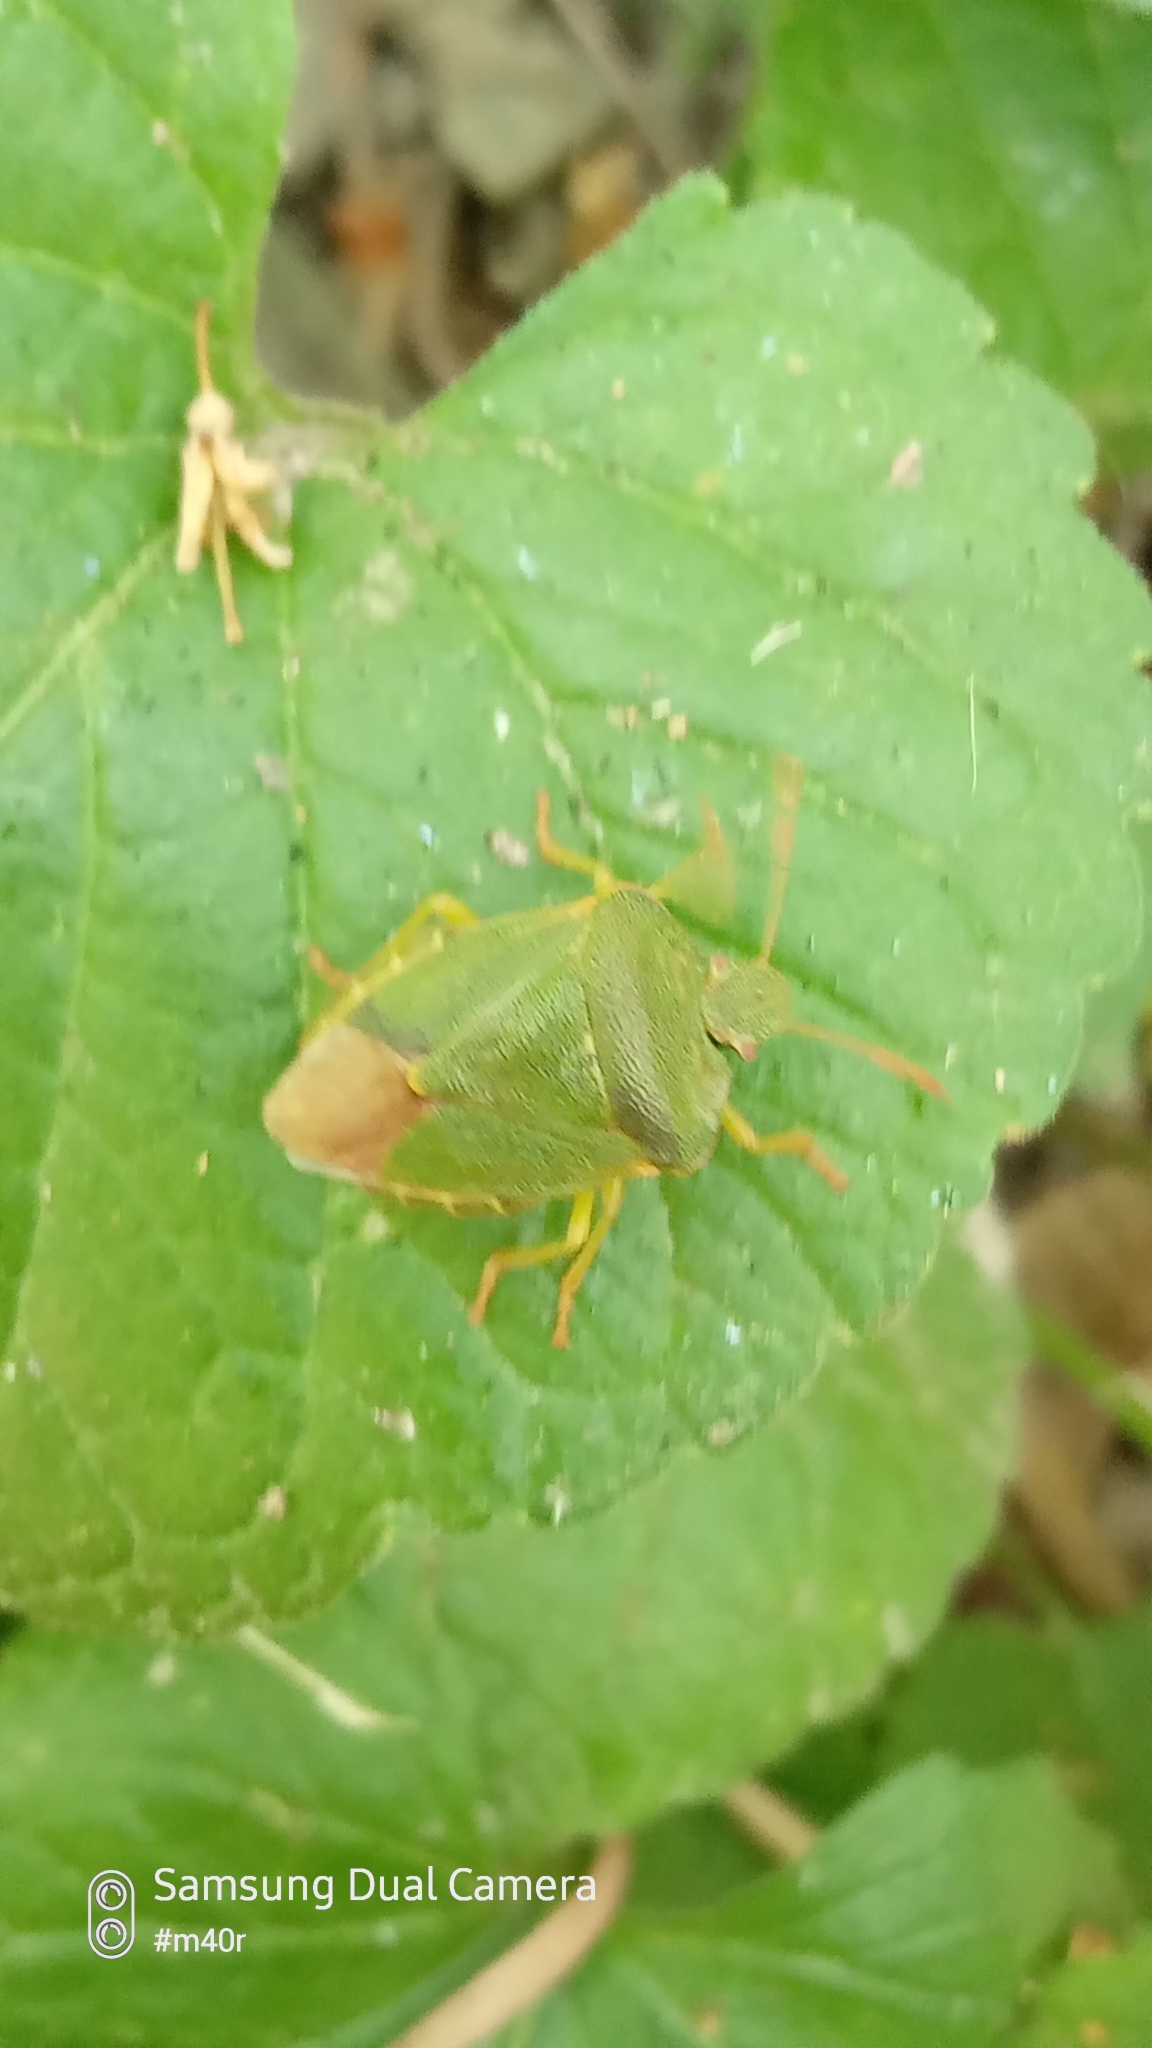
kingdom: Animalia
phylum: Arthropoda
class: Insecta
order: Hemiptera
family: Pentatomidae
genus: Palomena
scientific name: Palomena prasina
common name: Green shieldbug
